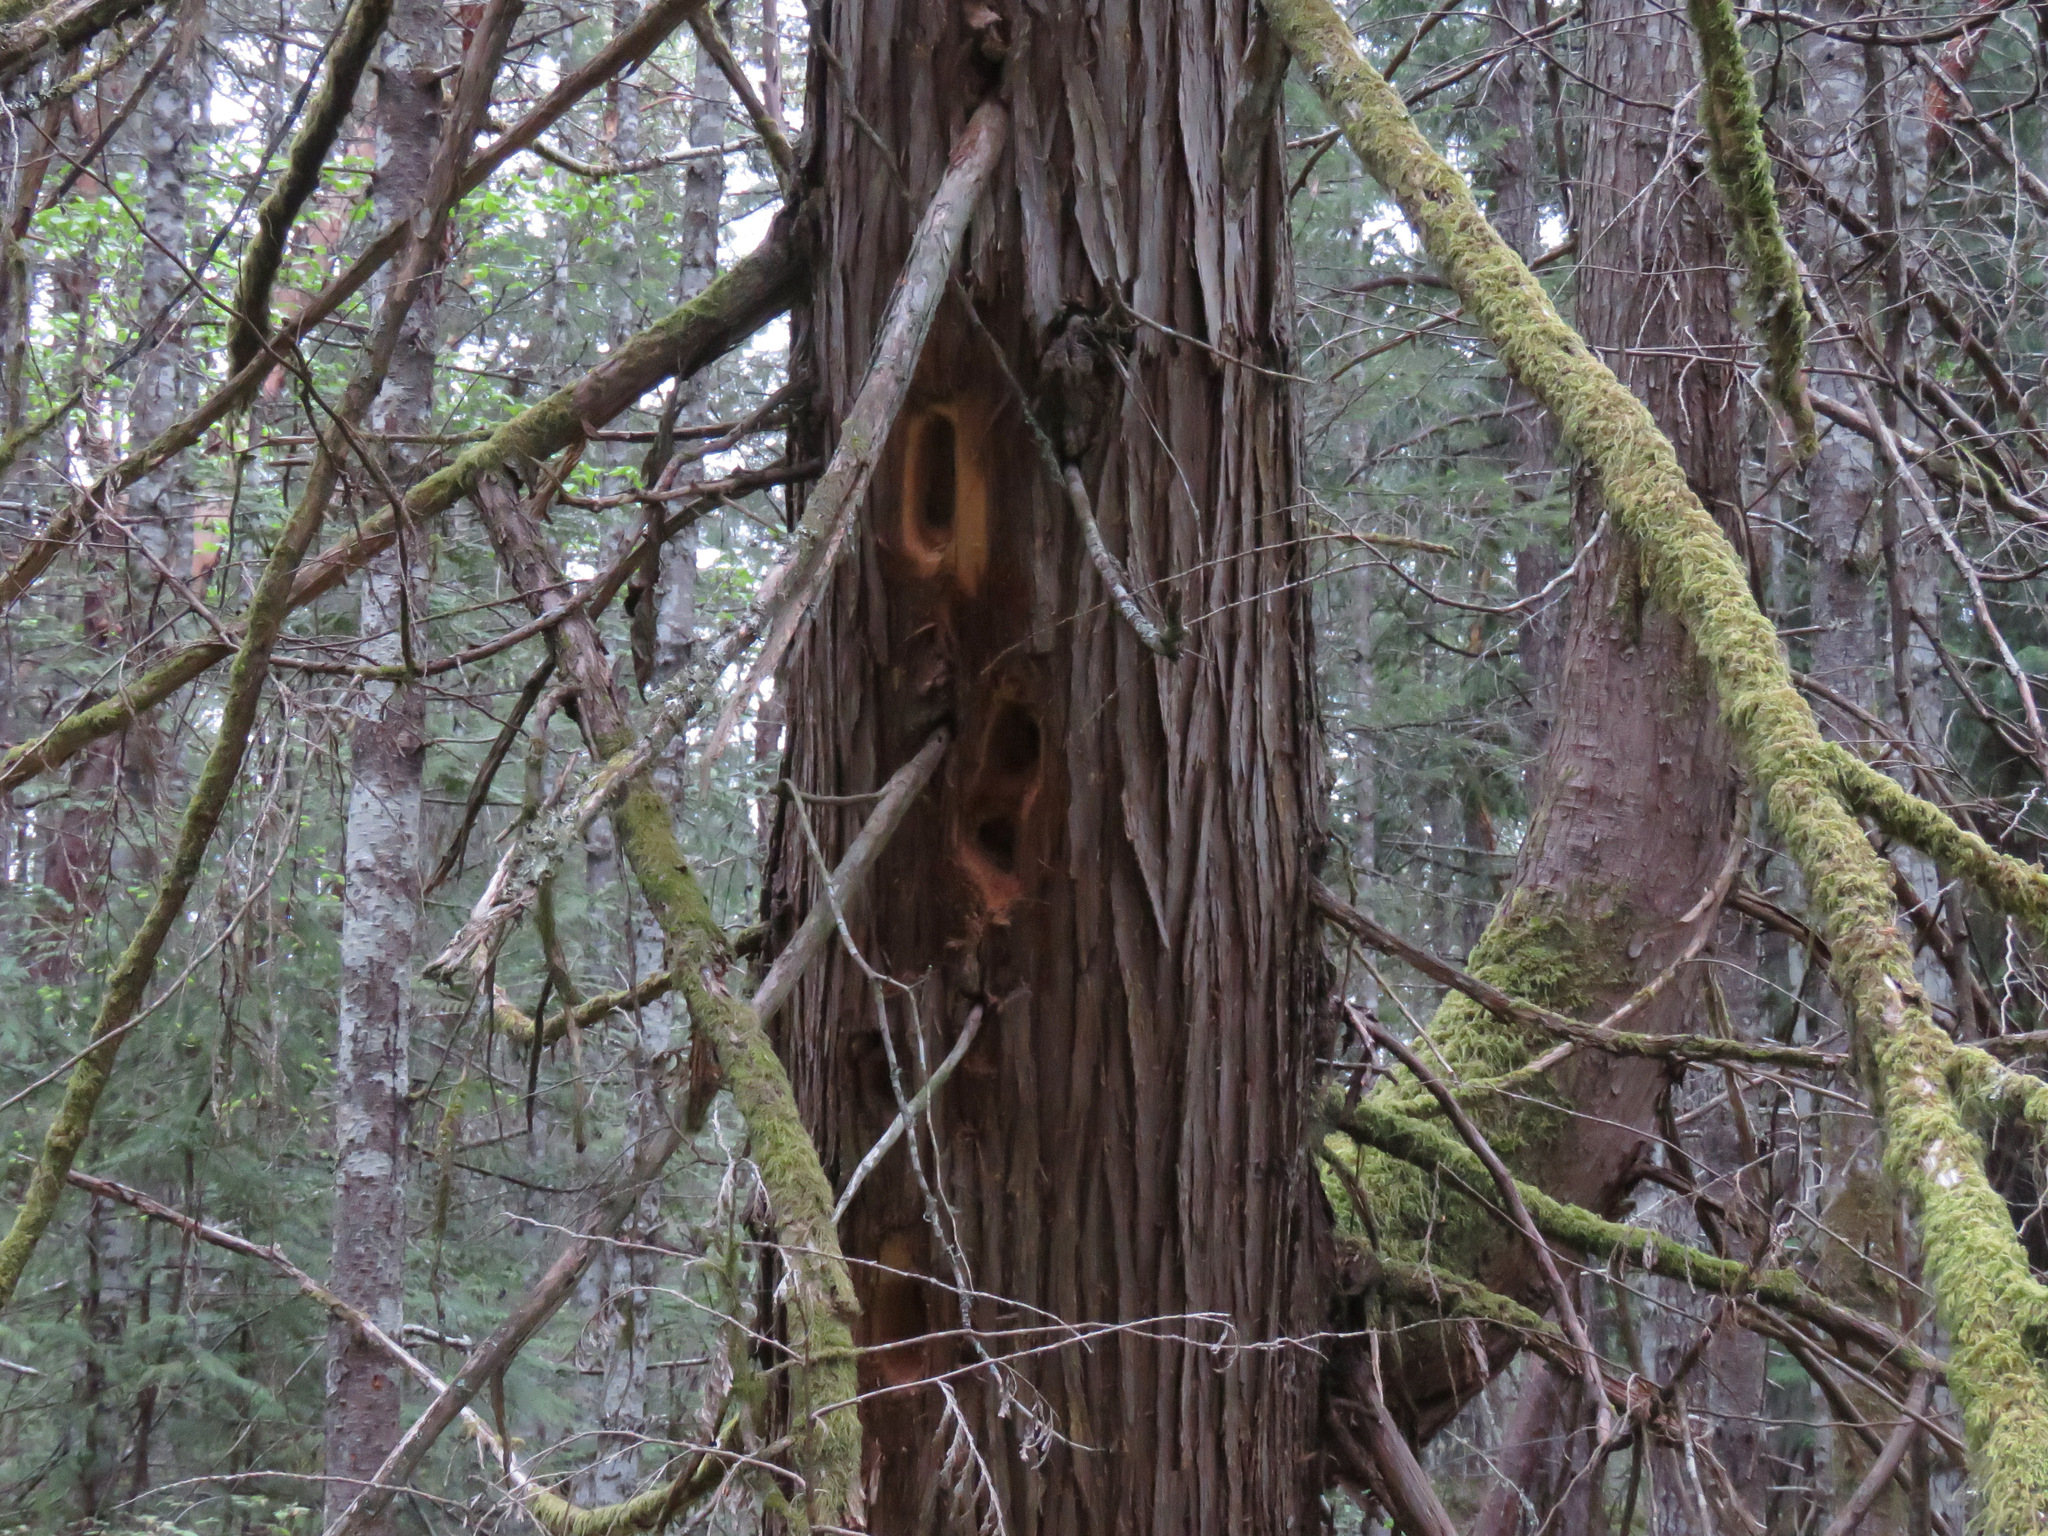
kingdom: Animalia
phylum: Chordata
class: Aves
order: Piciformes
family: Picidae
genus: Dryocopus
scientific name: Dryocopus pileatus
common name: Pileated woodpecker
